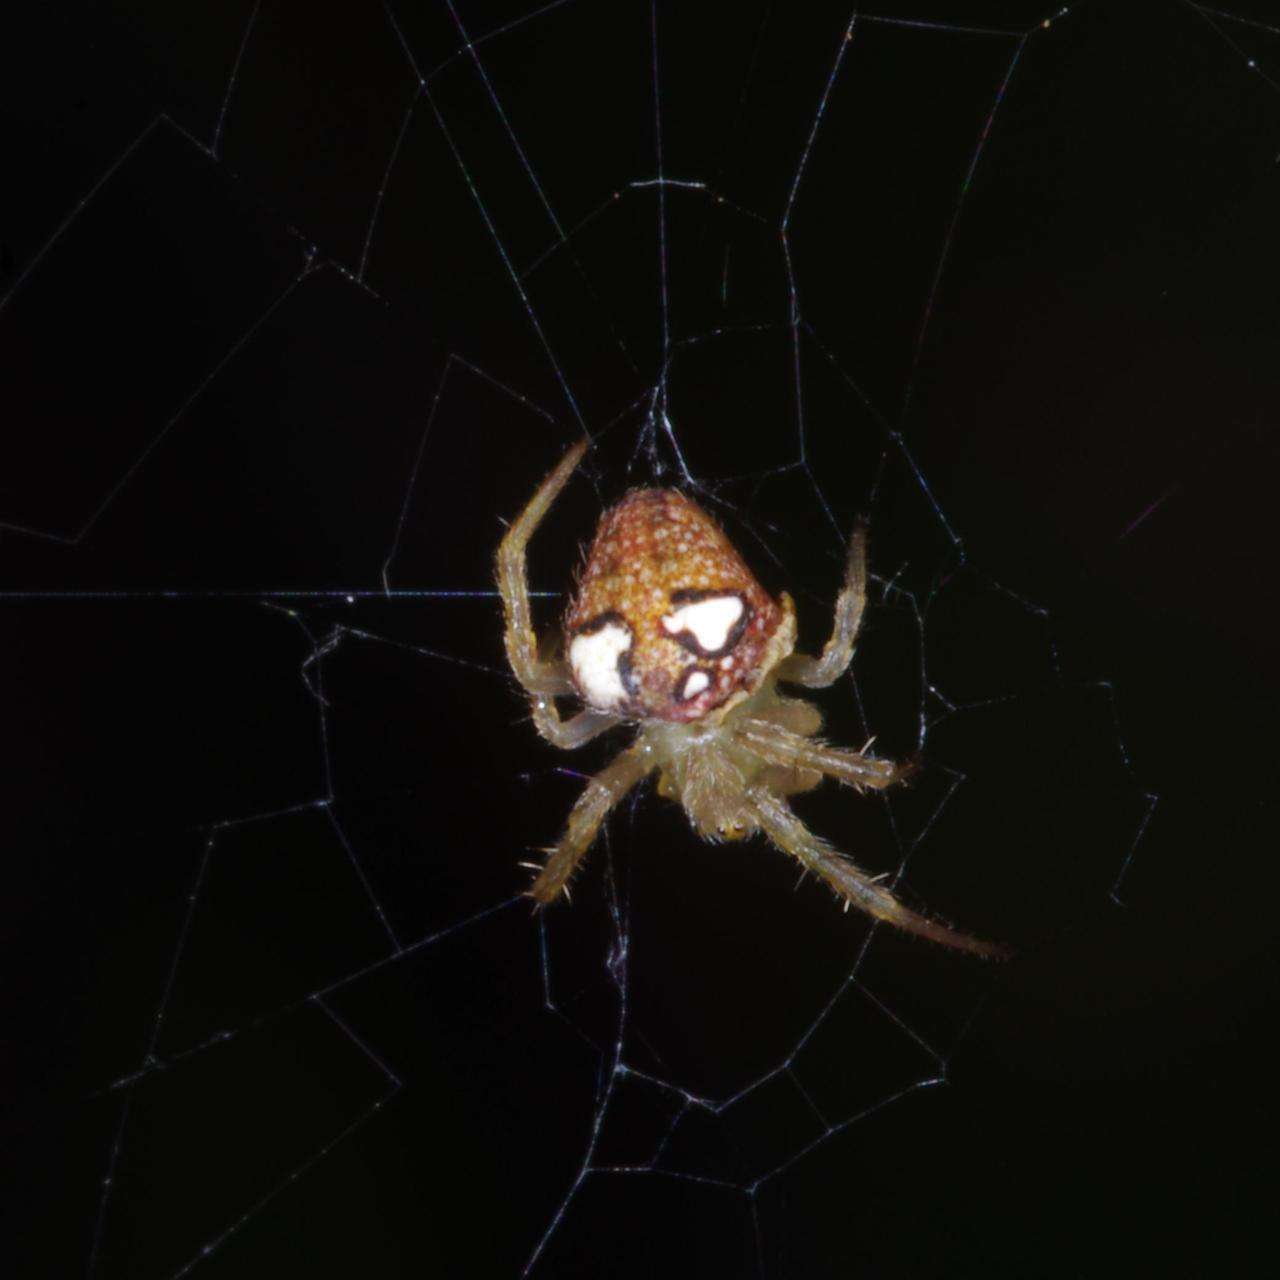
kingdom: Animalia
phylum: Arthropoda
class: Arachnida
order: Araneae
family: Araneidae
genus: Araneus
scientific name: Araneus circulissparsus
